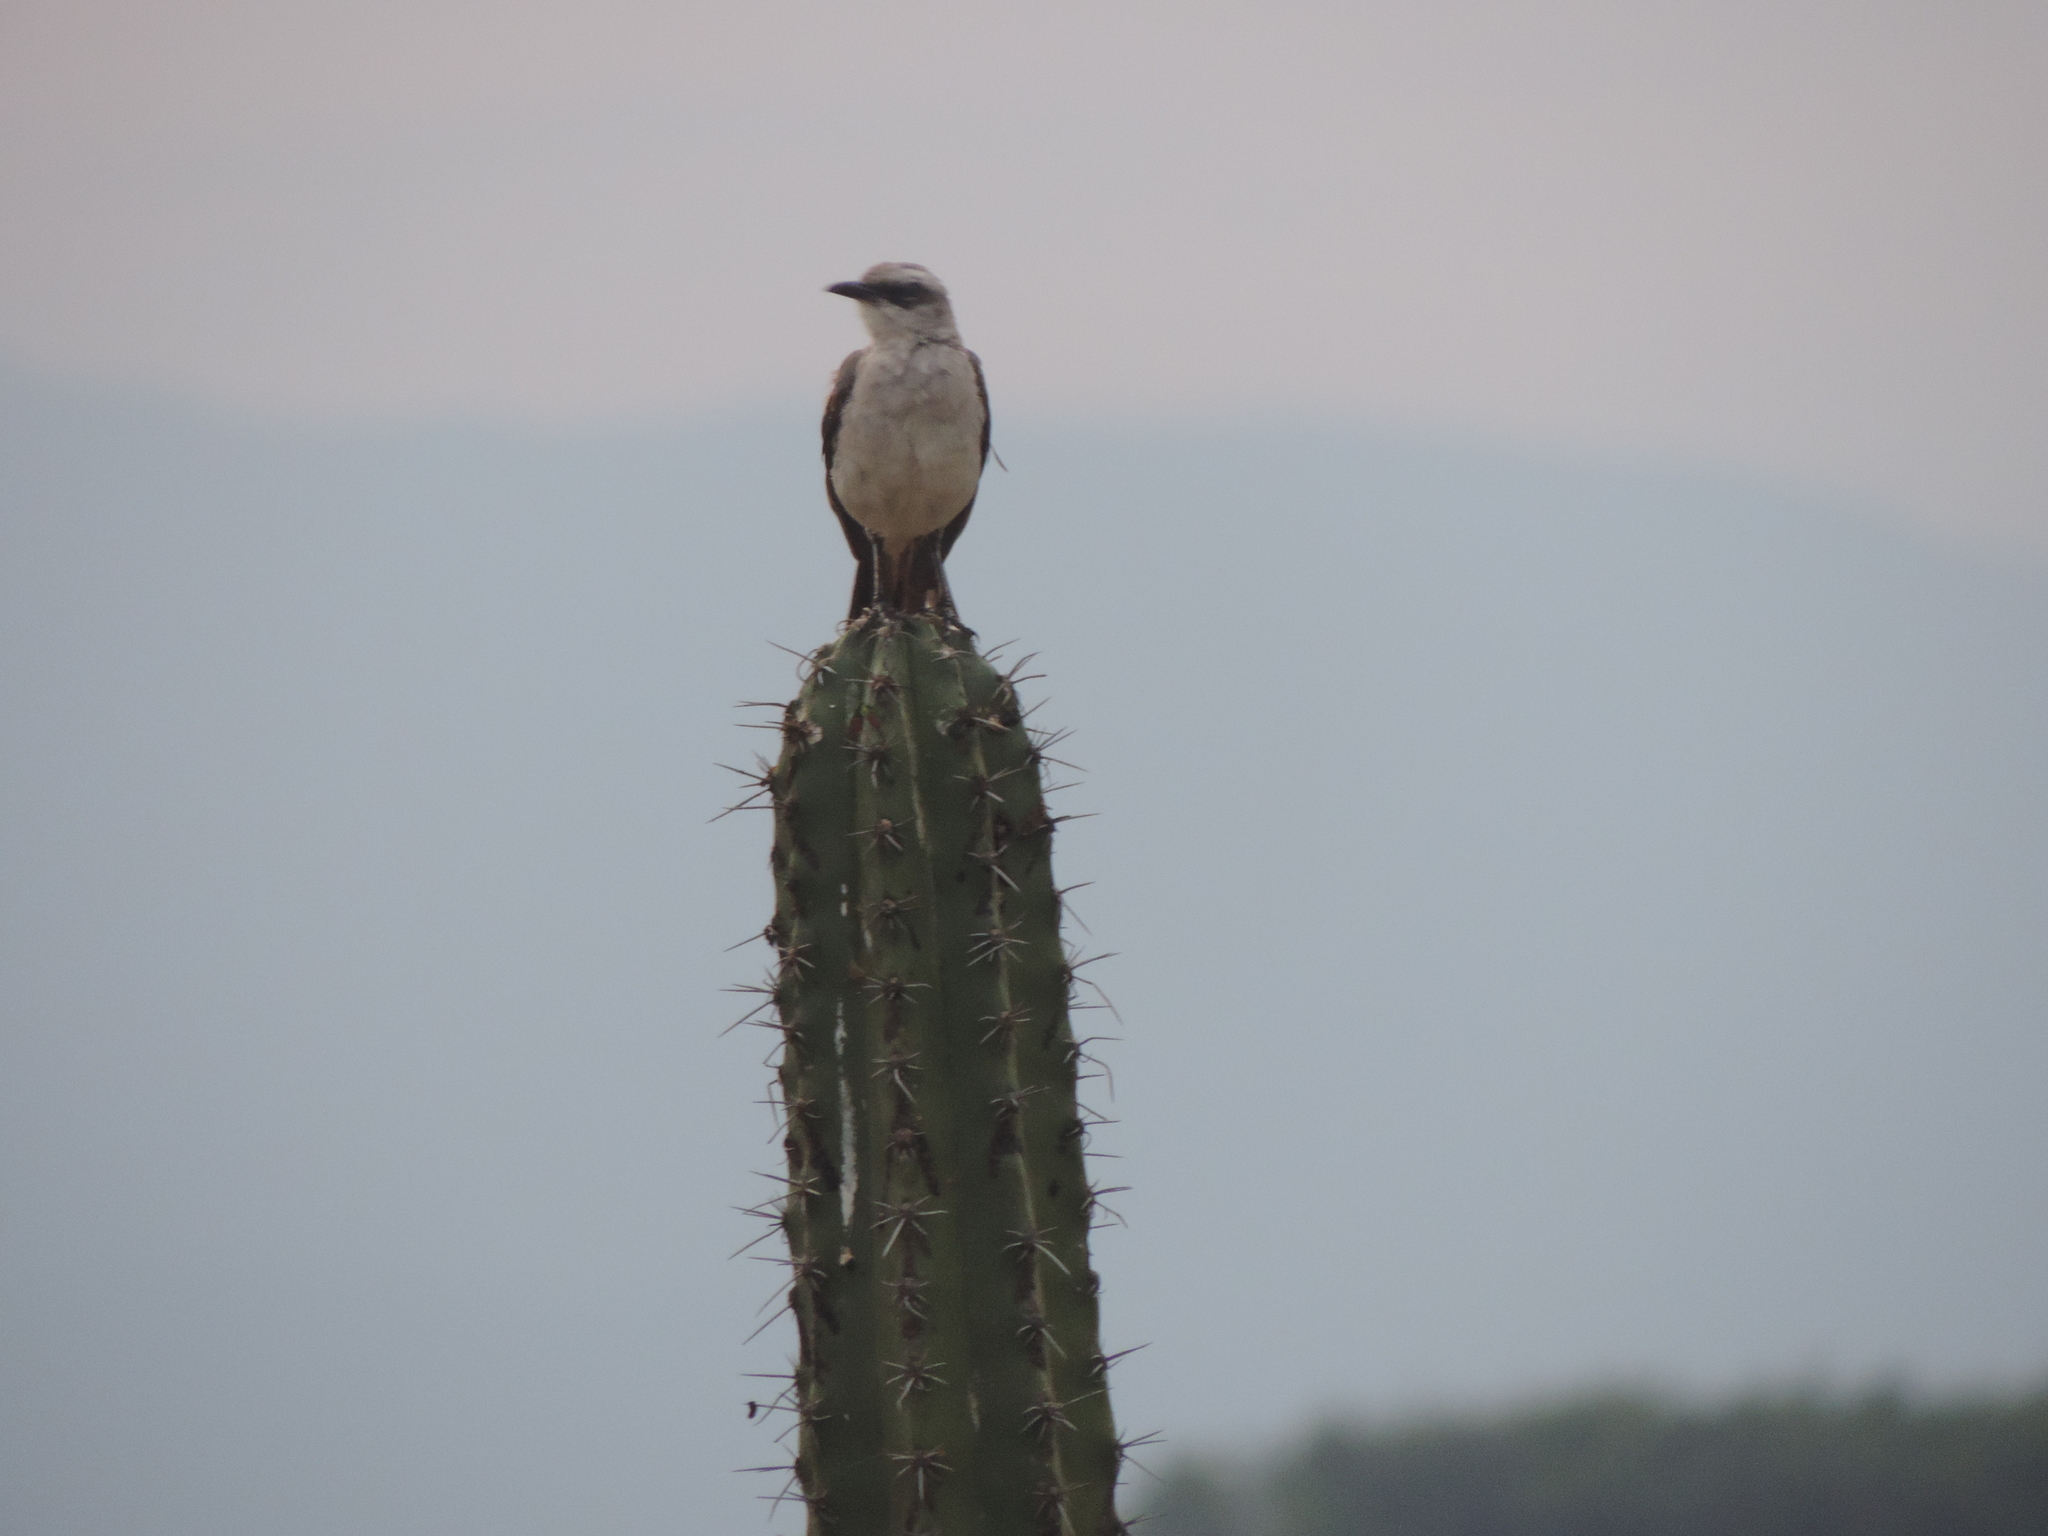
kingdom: Animalia
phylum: Chordata
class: Aves
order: Passeriformes
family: Mimidae
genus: Mimus
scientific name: Mimus gilvus
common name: Tropical mockingbird
